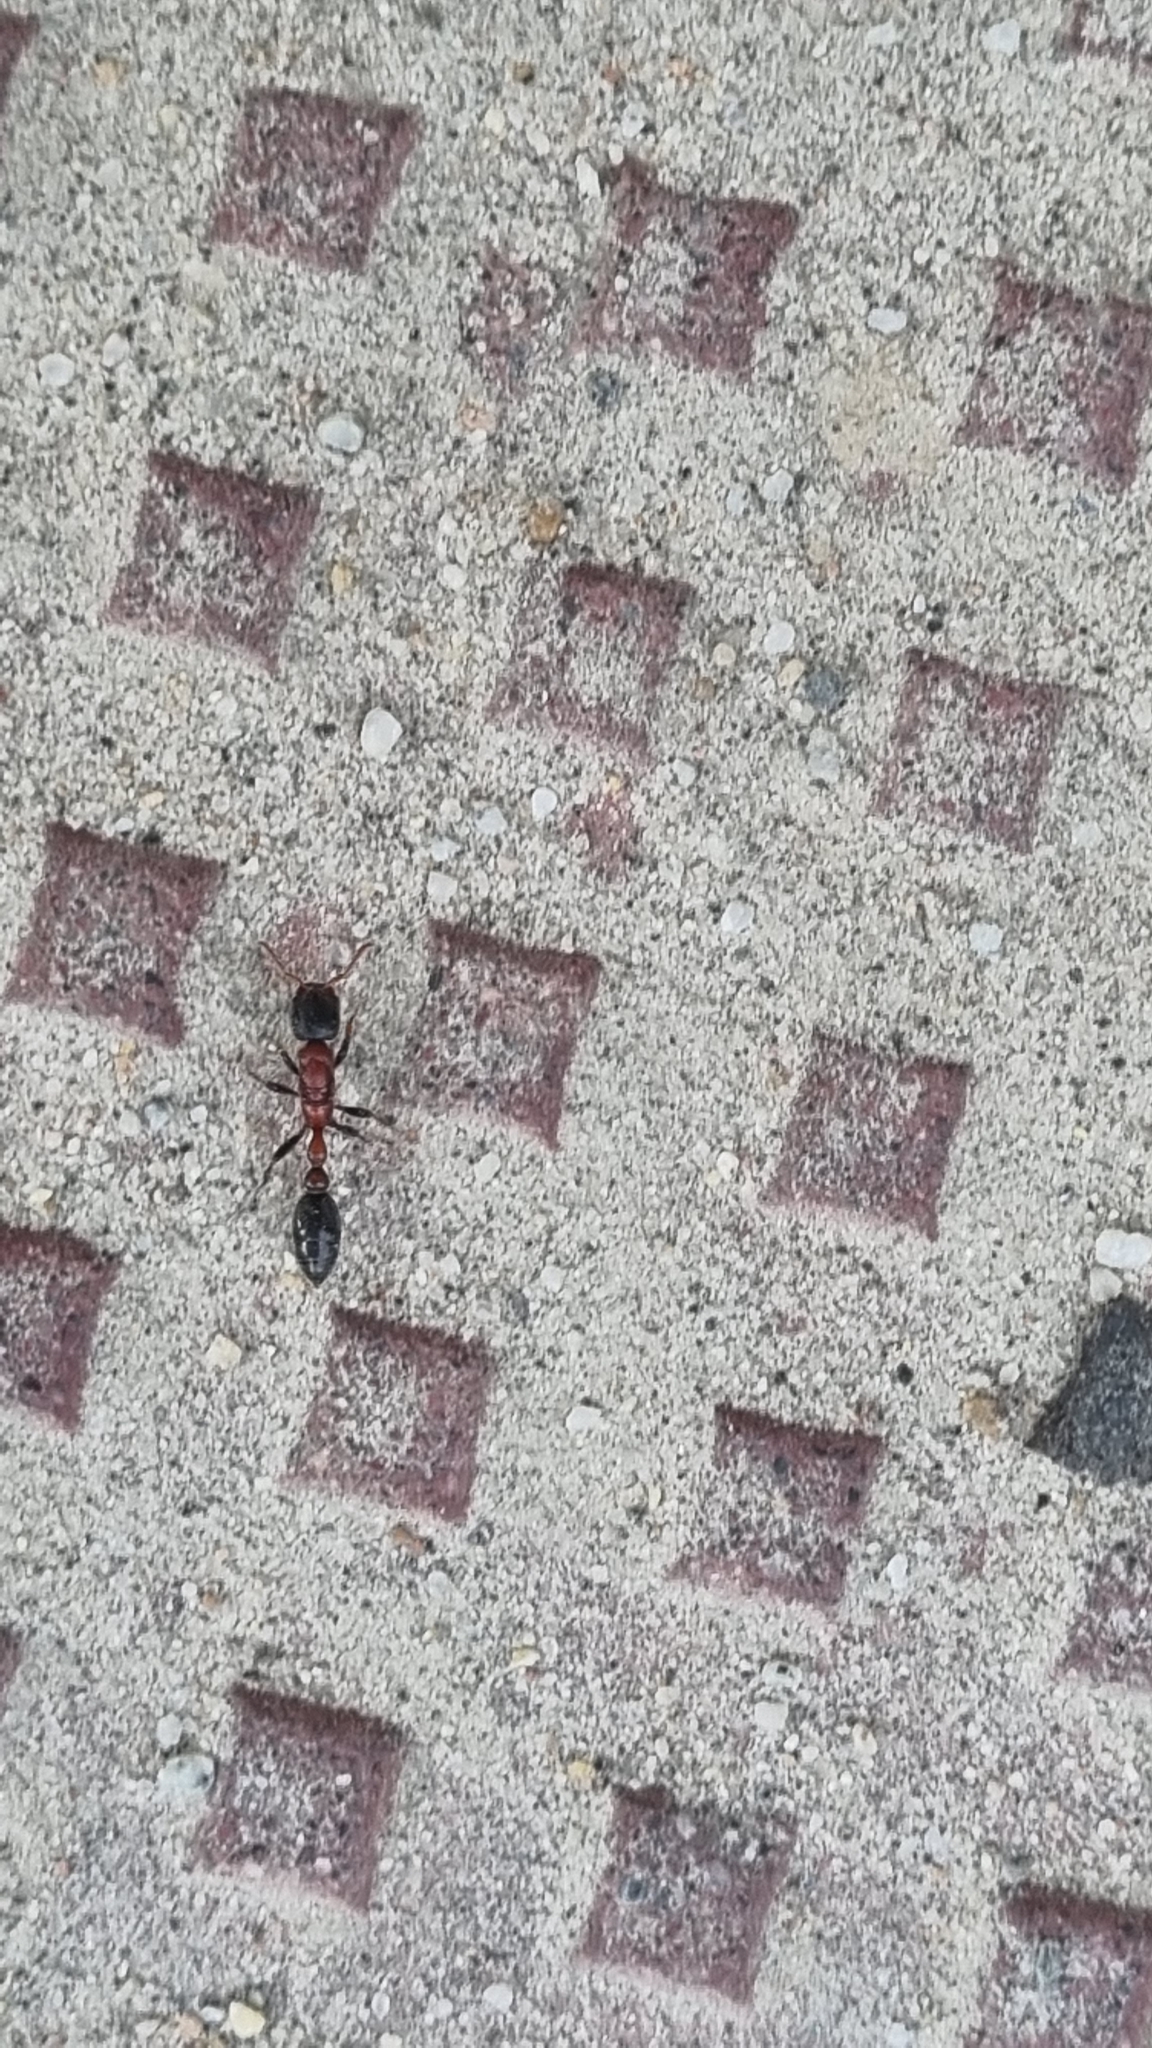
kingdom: Animalia
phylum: Arthropoda
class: Insecta
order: Hymenoptera
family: Formicidae
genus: Tetraponera
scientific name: Tetraponera rufonigra
